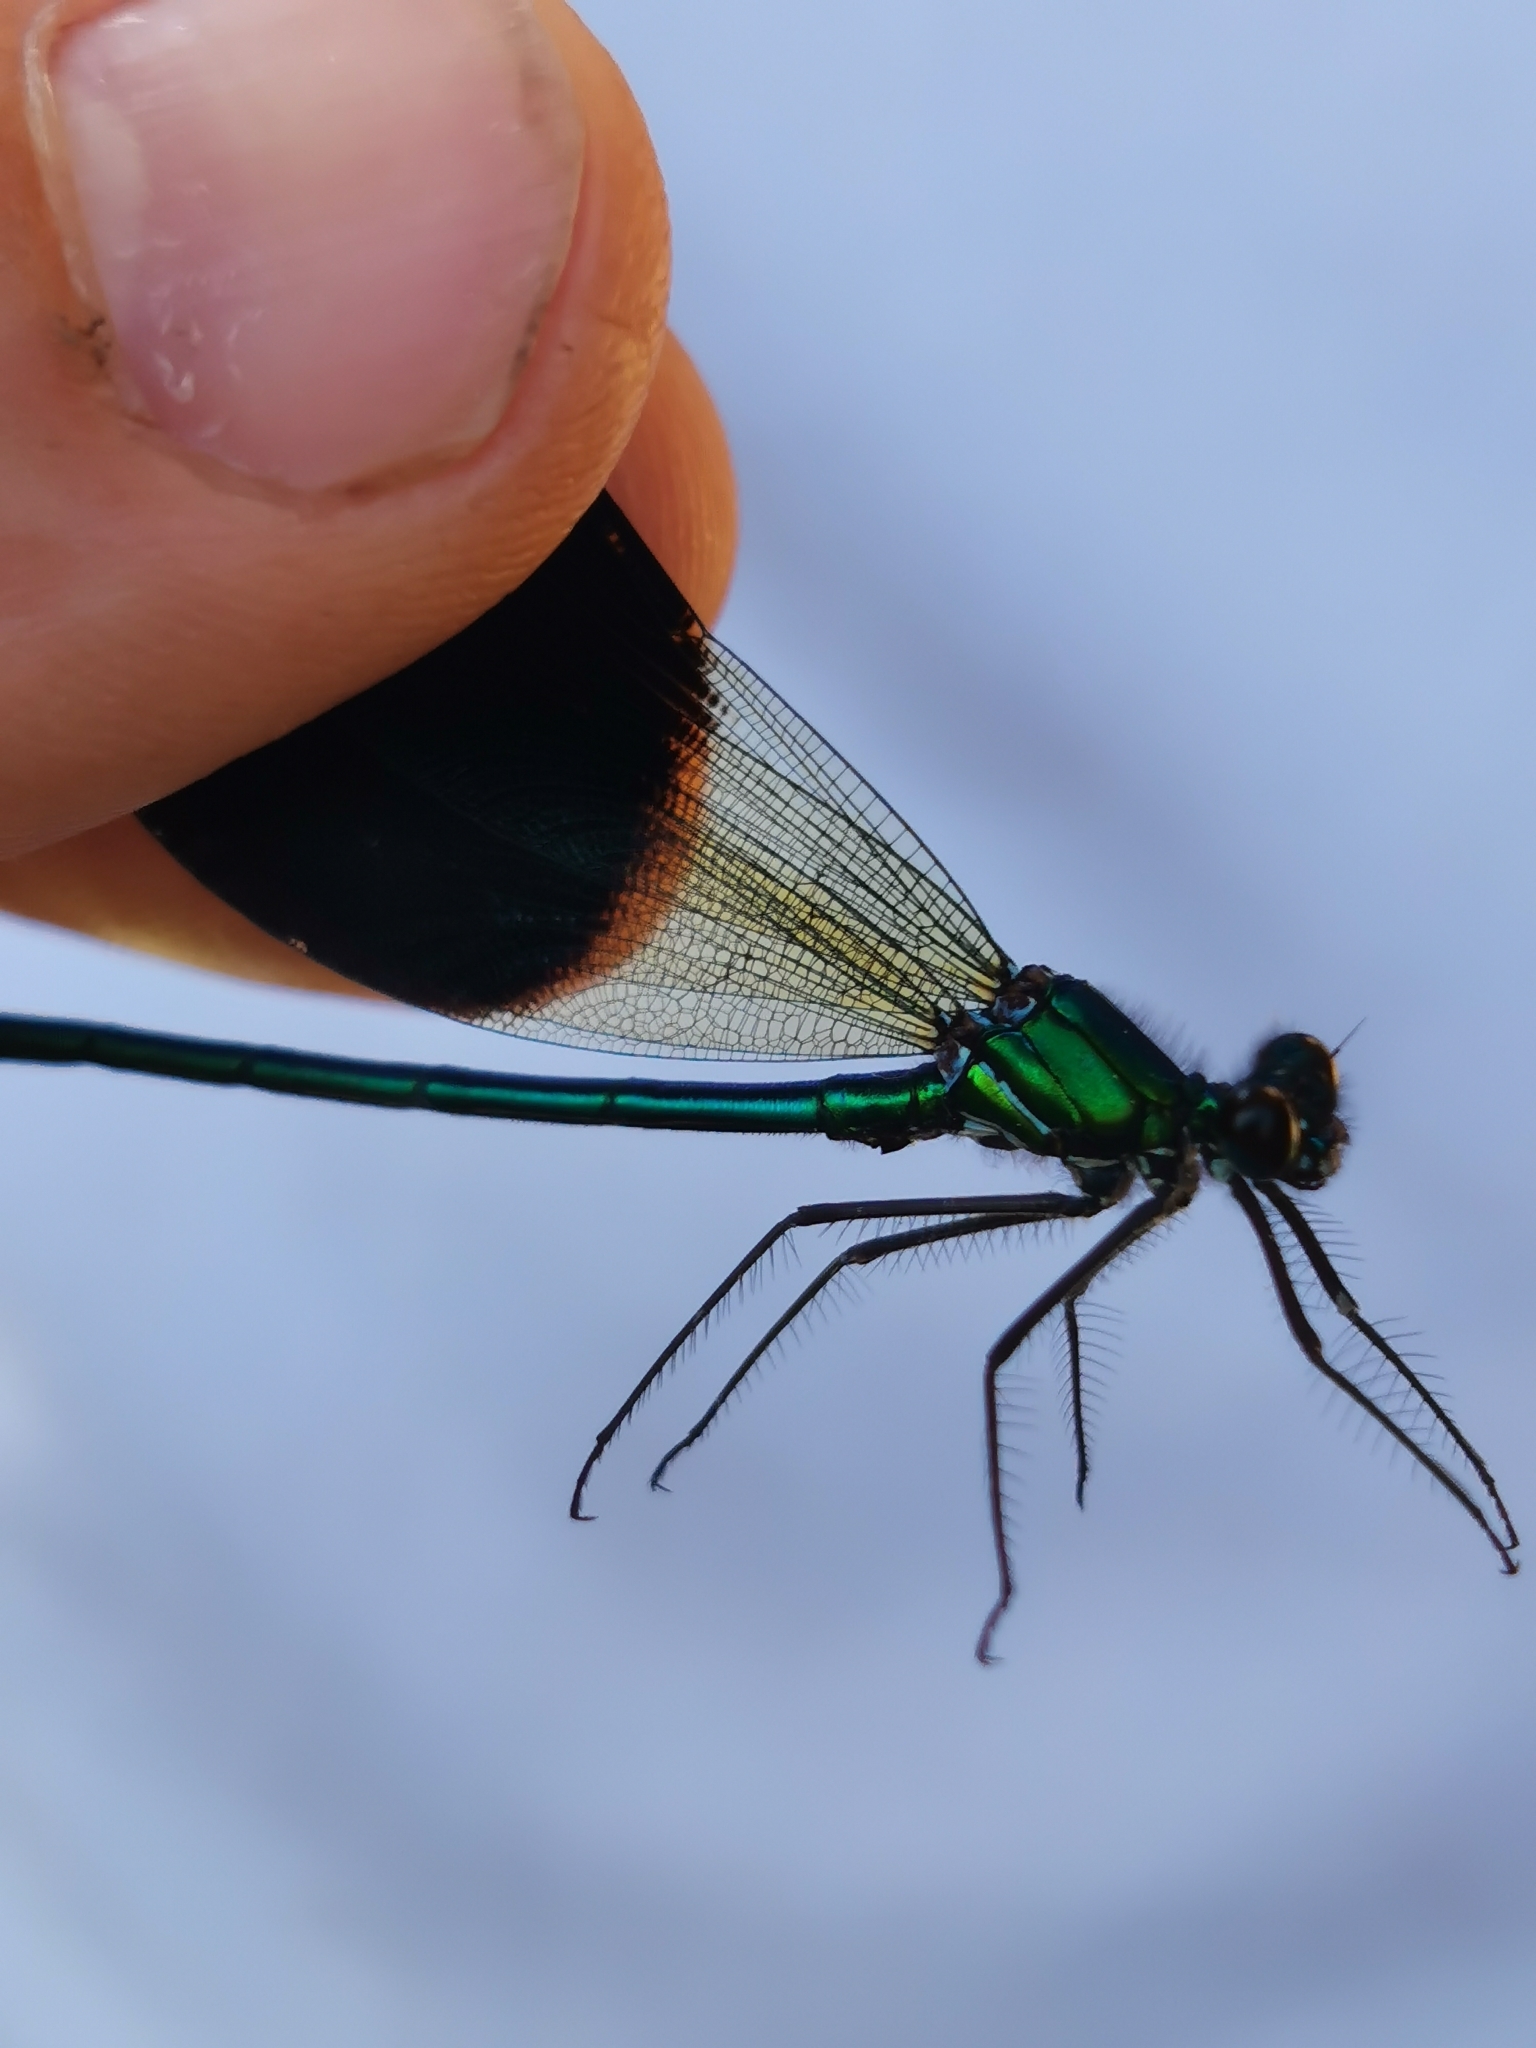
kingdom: Animalia
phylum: Arthropoda
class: Insecta
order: Odonata
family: Calopterygidae
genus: Calopteryx
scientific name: Calopteryx xanthostoma
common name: Western demoiselle
